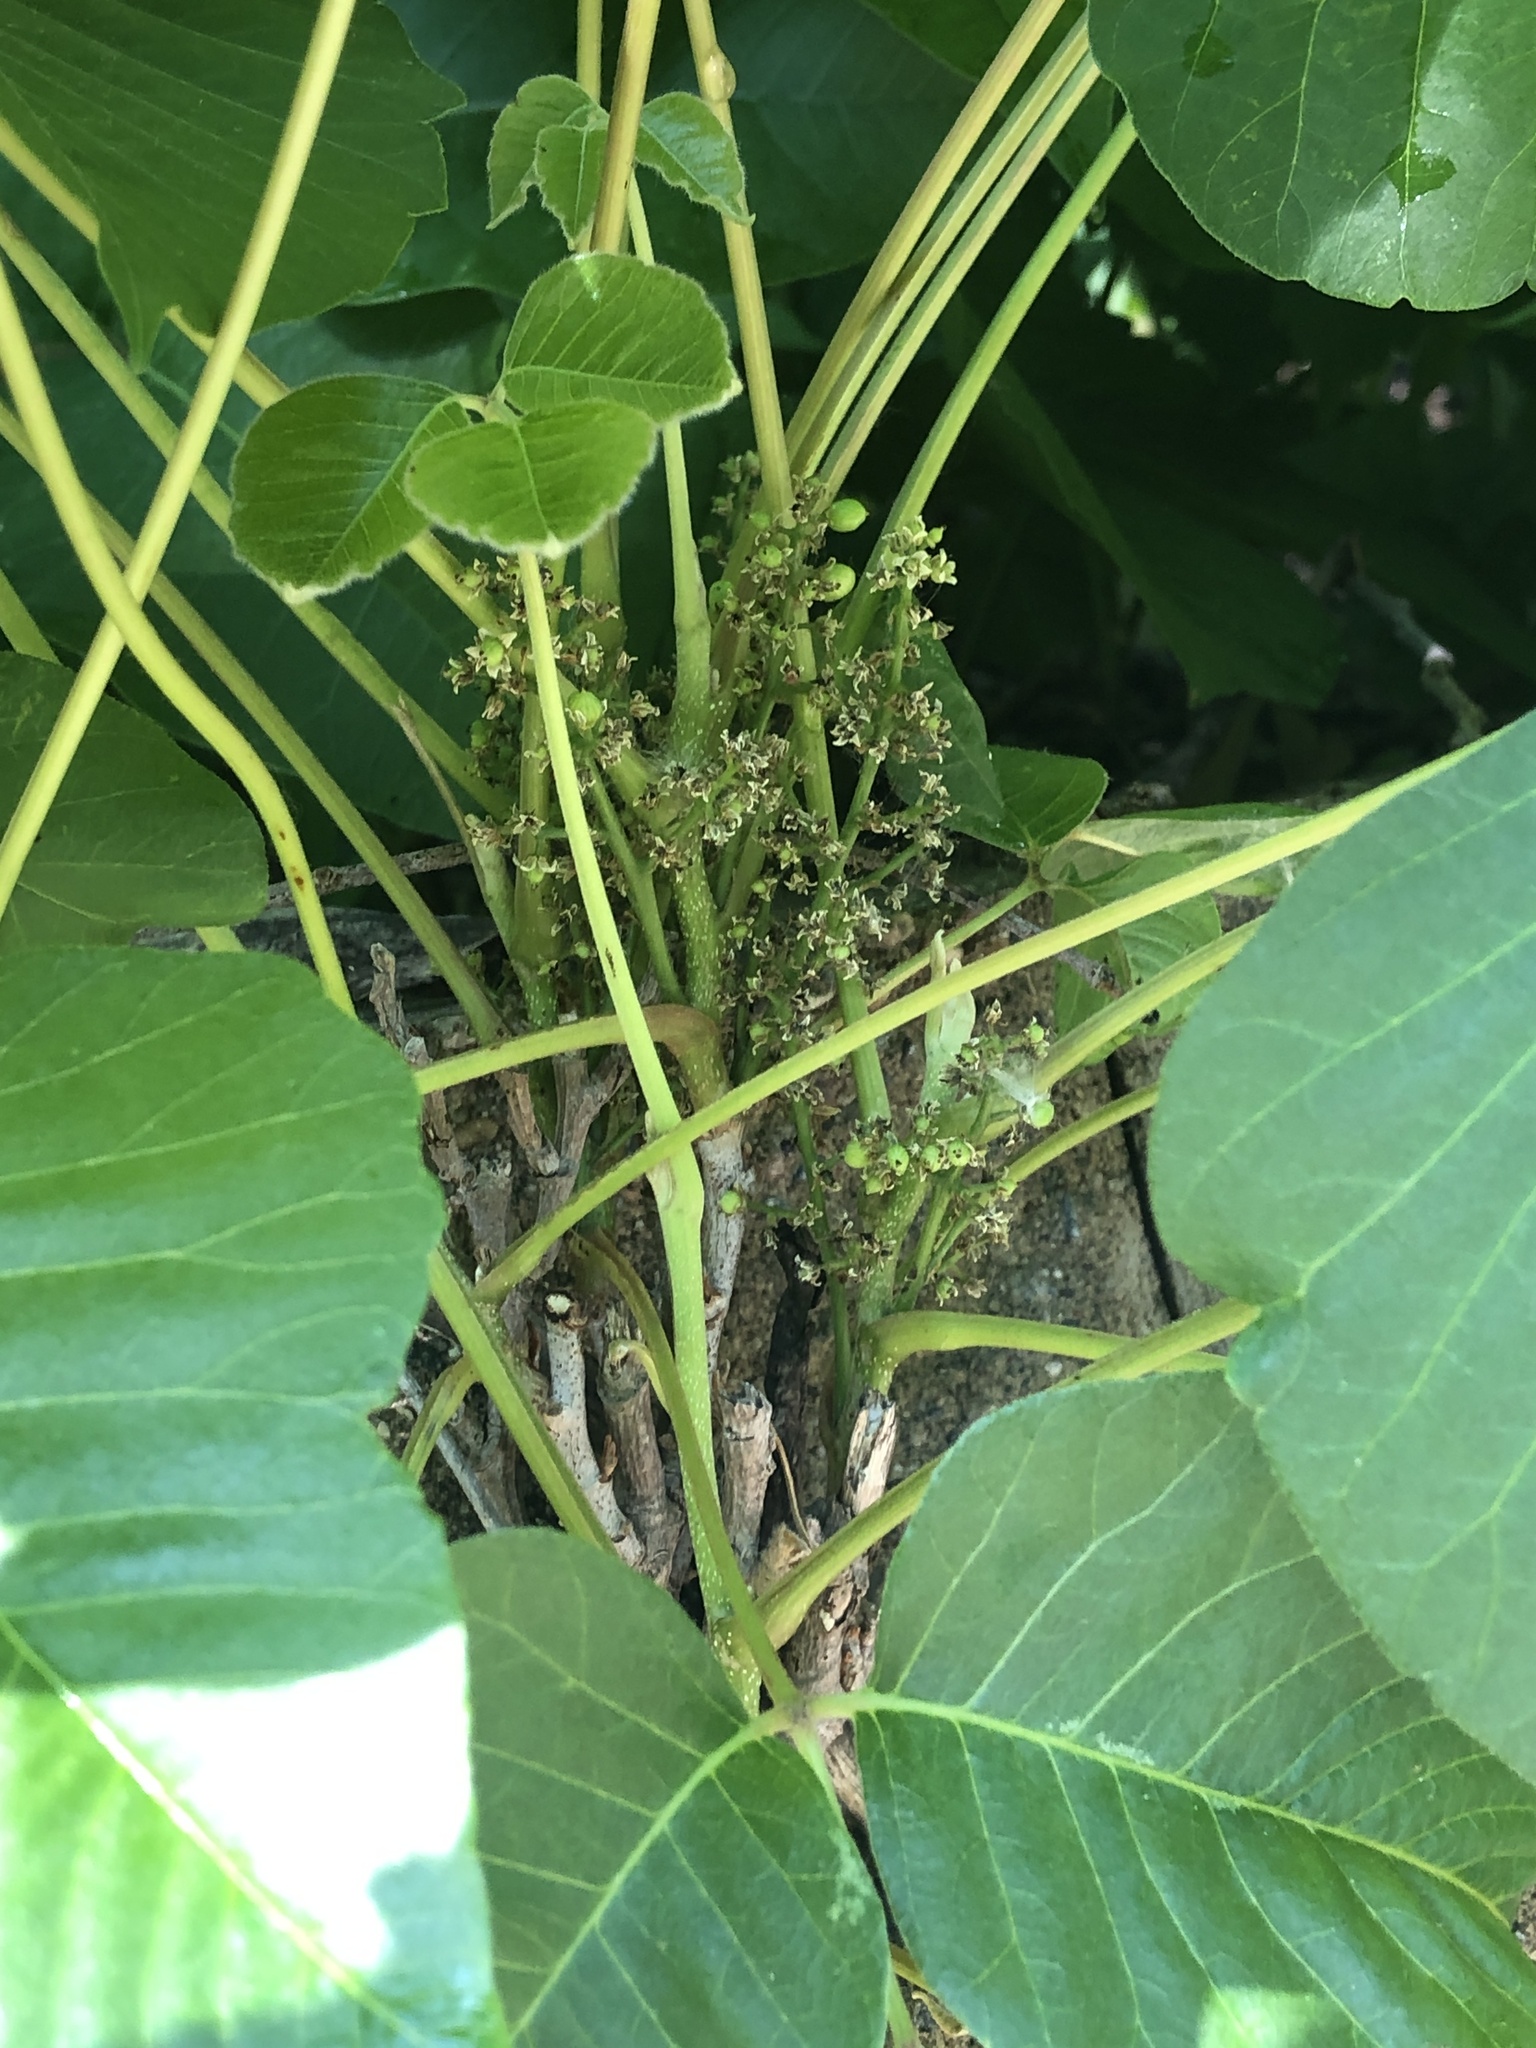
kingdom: Plantae
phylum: Tracheophyta
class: Magnoliopsida
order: Sapindales
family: Anacardiaceae
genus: Toxicodendron
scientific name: Toxicodendron rydbergii
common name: Rydberg's poison-ivy
